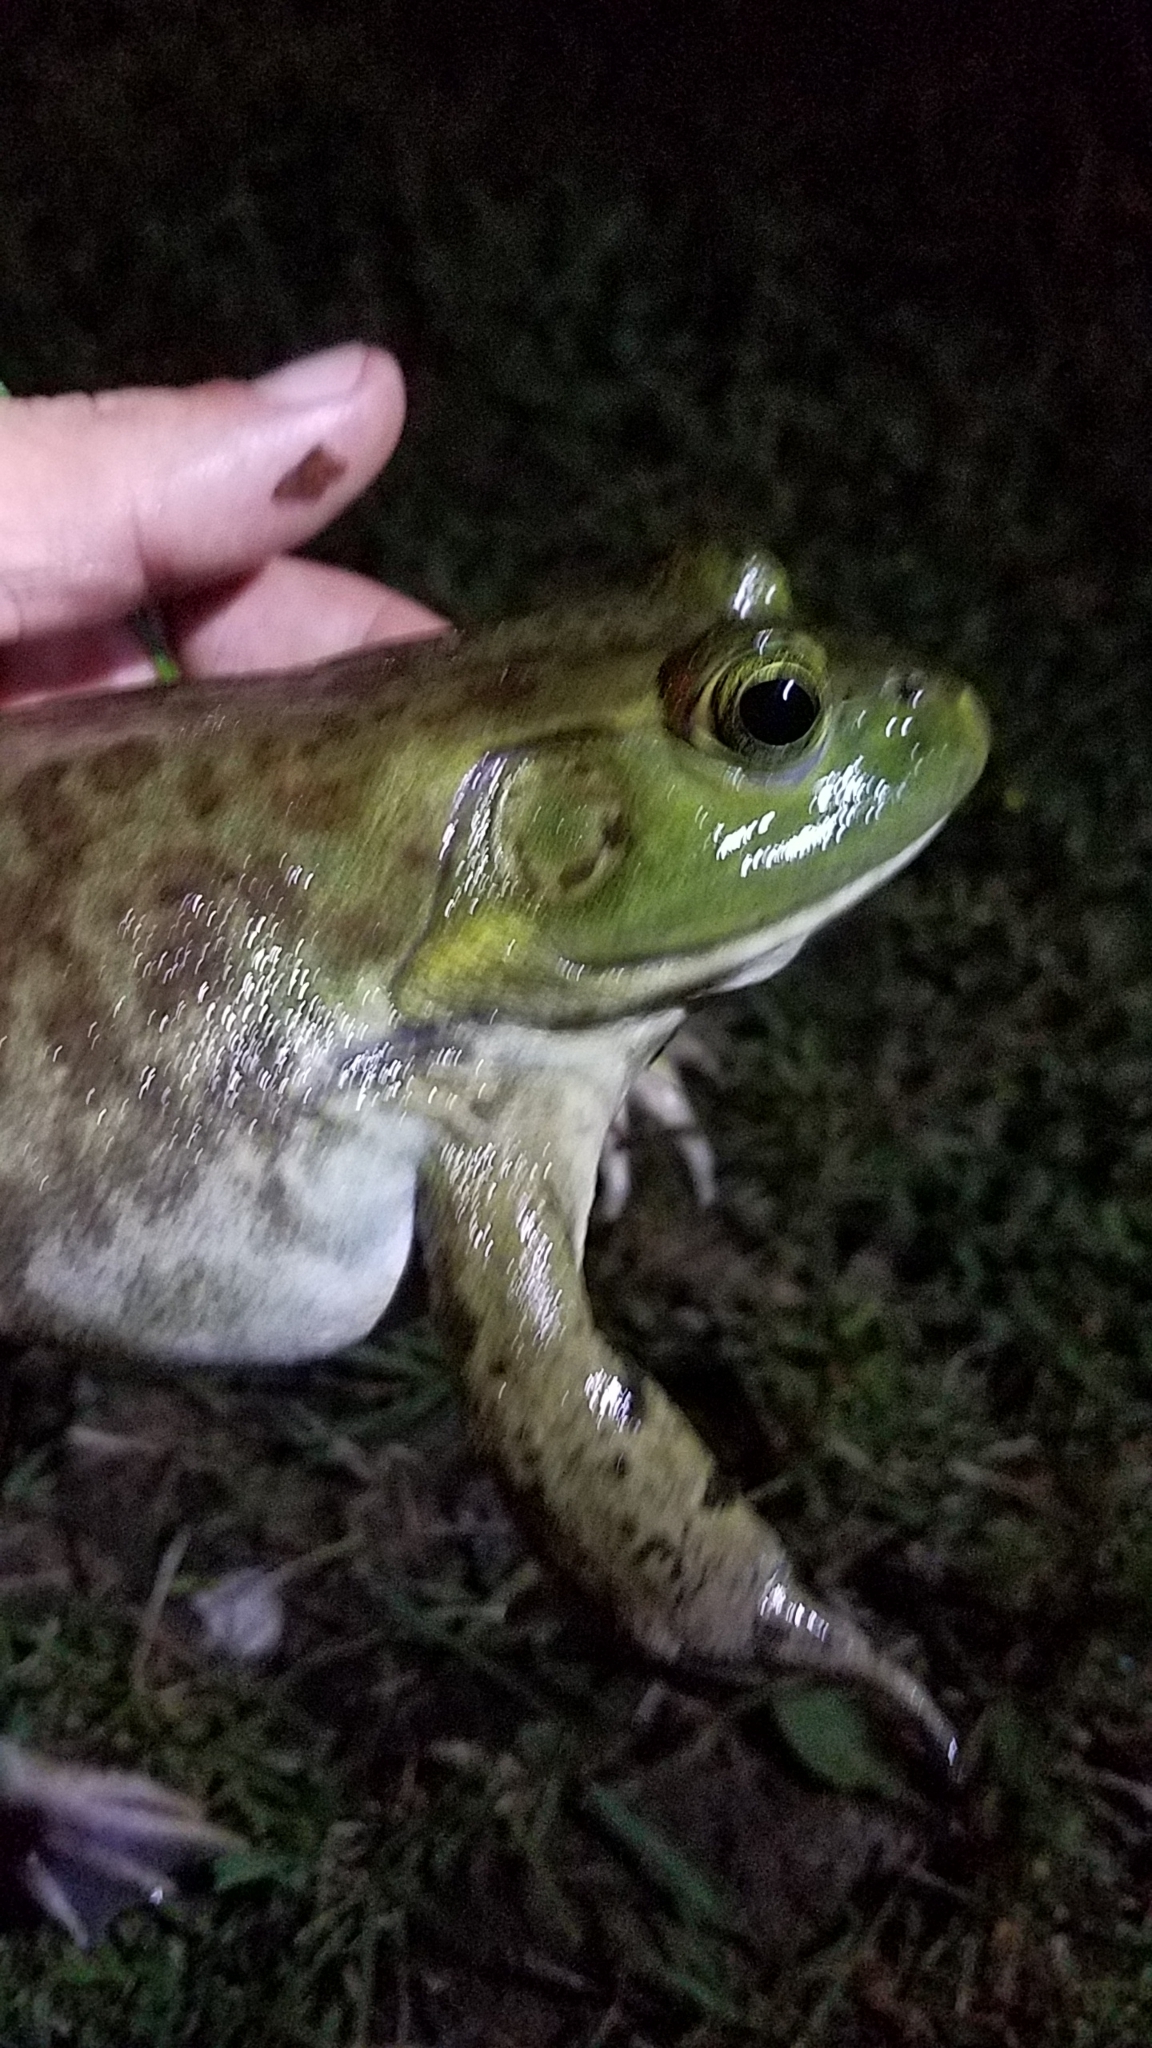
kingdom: Animalia
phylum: Chordata
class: Amphibia
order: Anura
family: Ranidae
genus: Lithobates
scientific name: Lithobates catesbeianus
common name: American bullfrog
